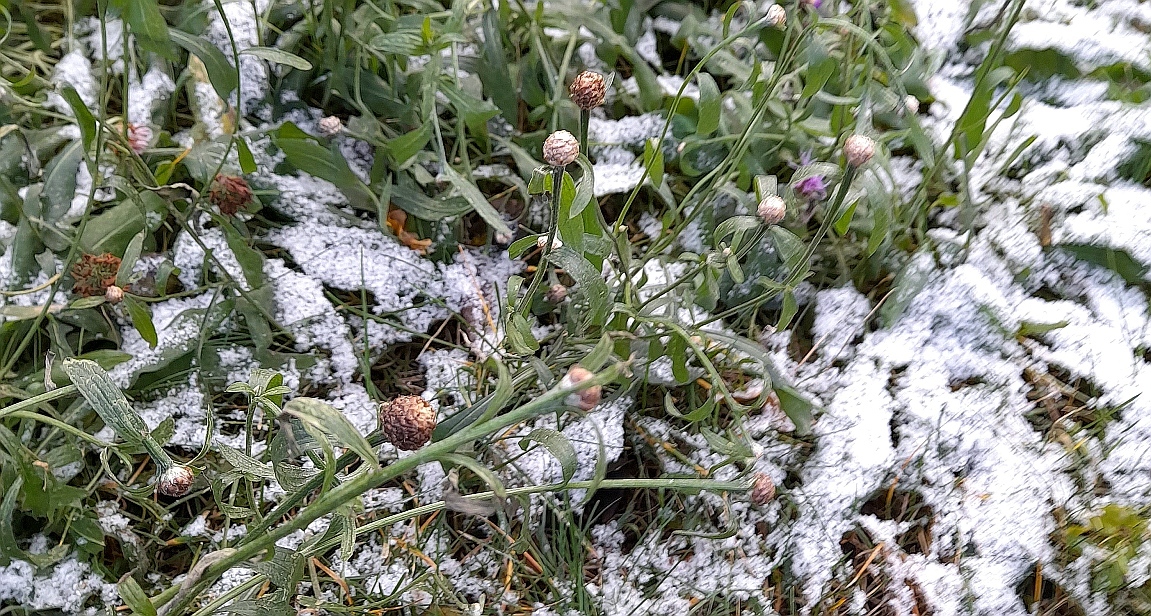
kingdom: Plantae
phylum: Tracheophyta
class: Magnoliopsida
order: Asterales
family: Asteraceae
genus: Centaurea
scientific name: Centaurea jacea
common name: Brown knapweed
